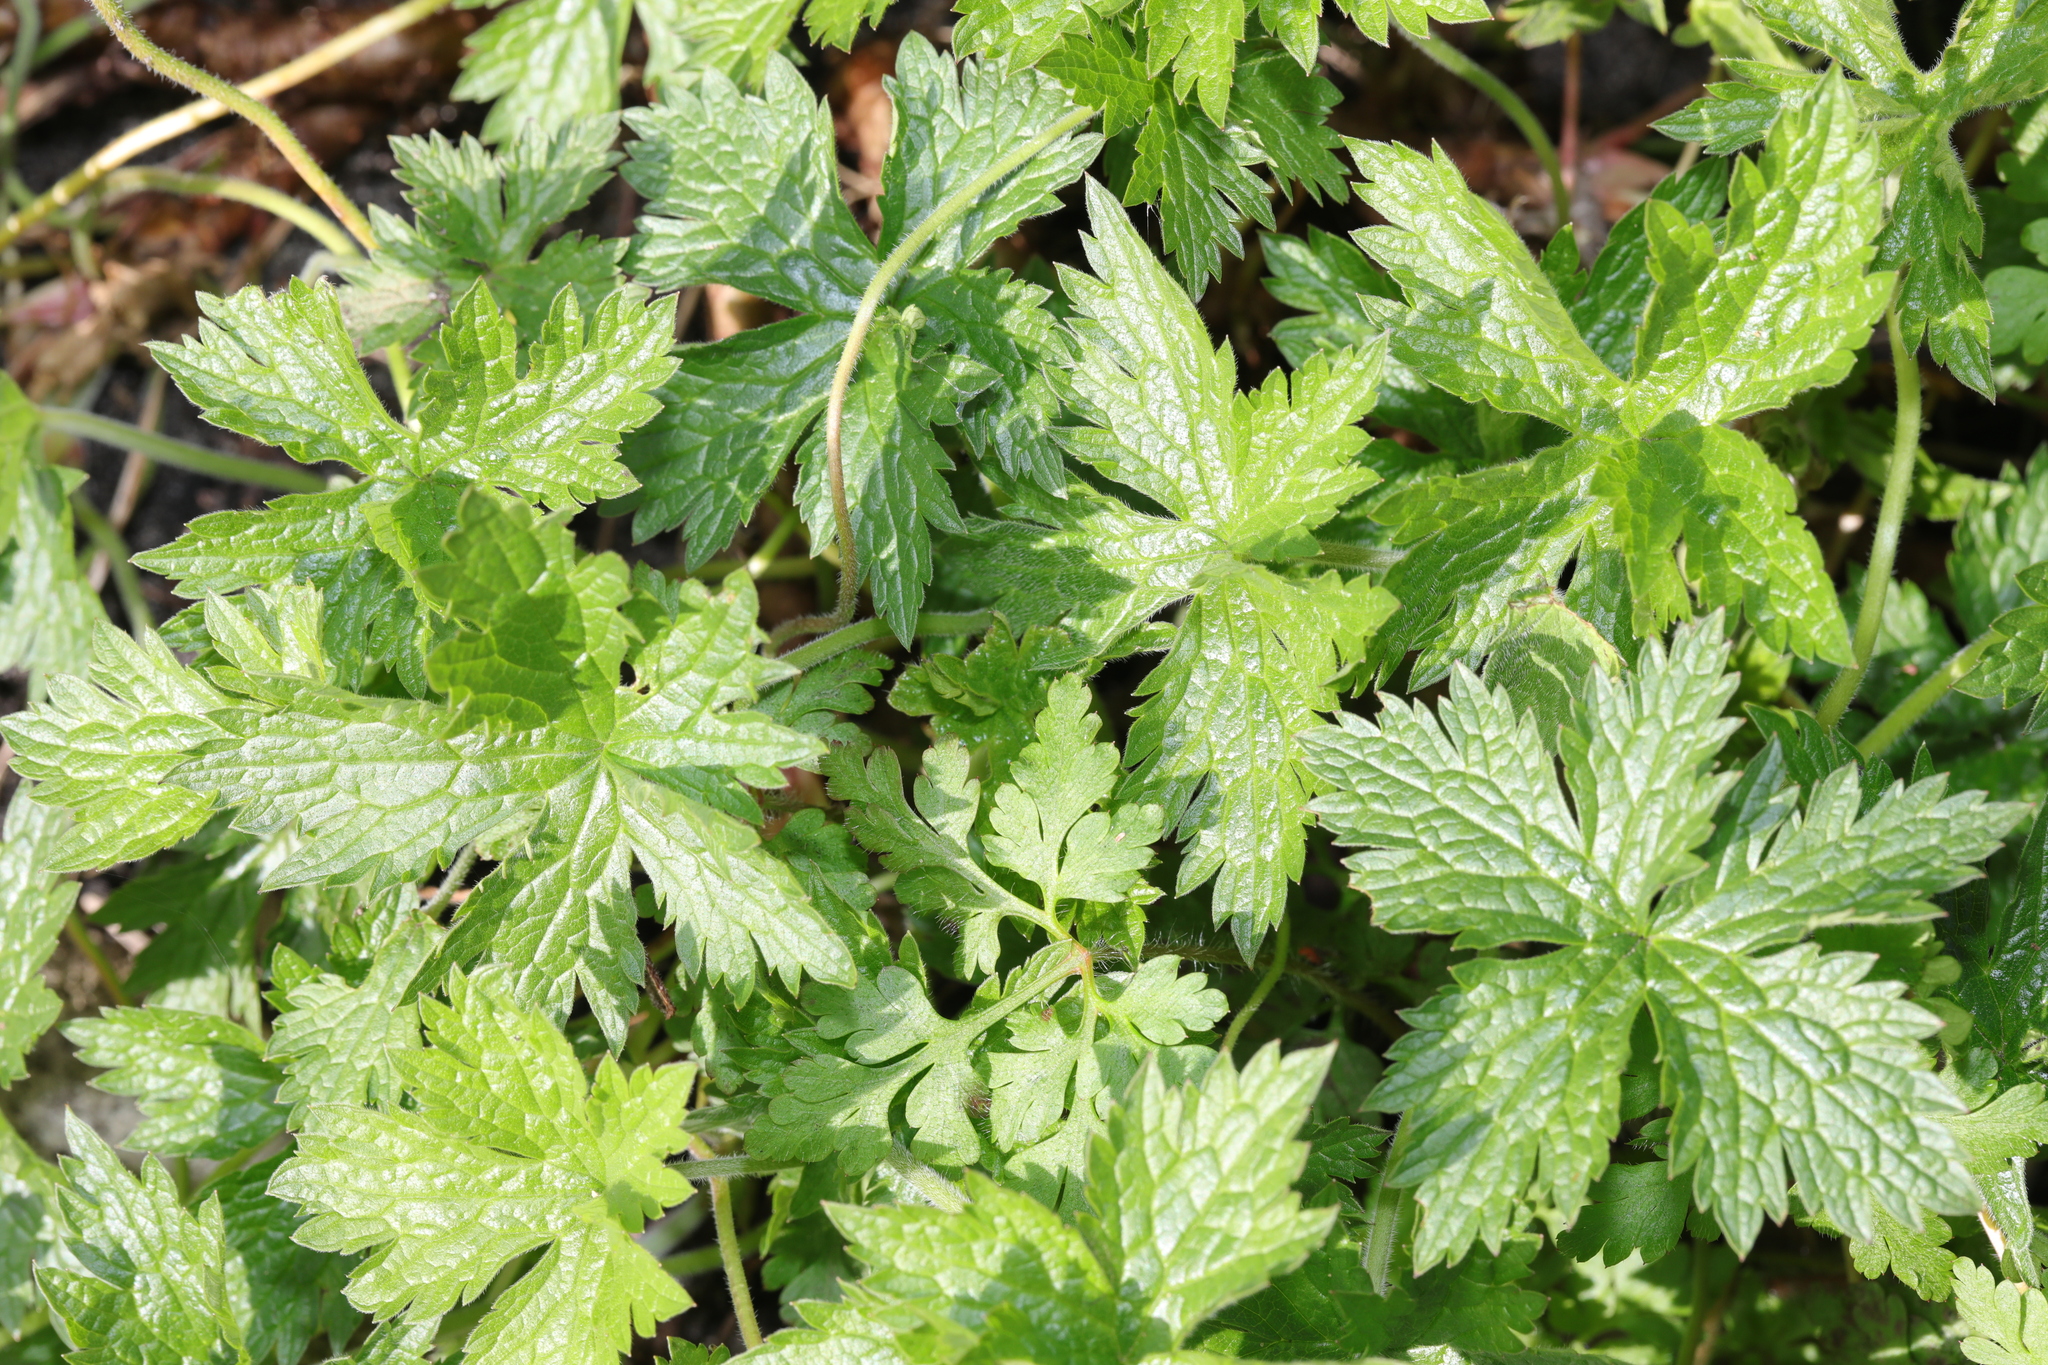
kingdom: Plantae
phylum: Tracheophyta
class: Magnoliopsida
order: Geraniales
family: Geraniaceae
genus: Geranium
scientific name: Geranium oxonianum
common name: Druce's crane's-bill
